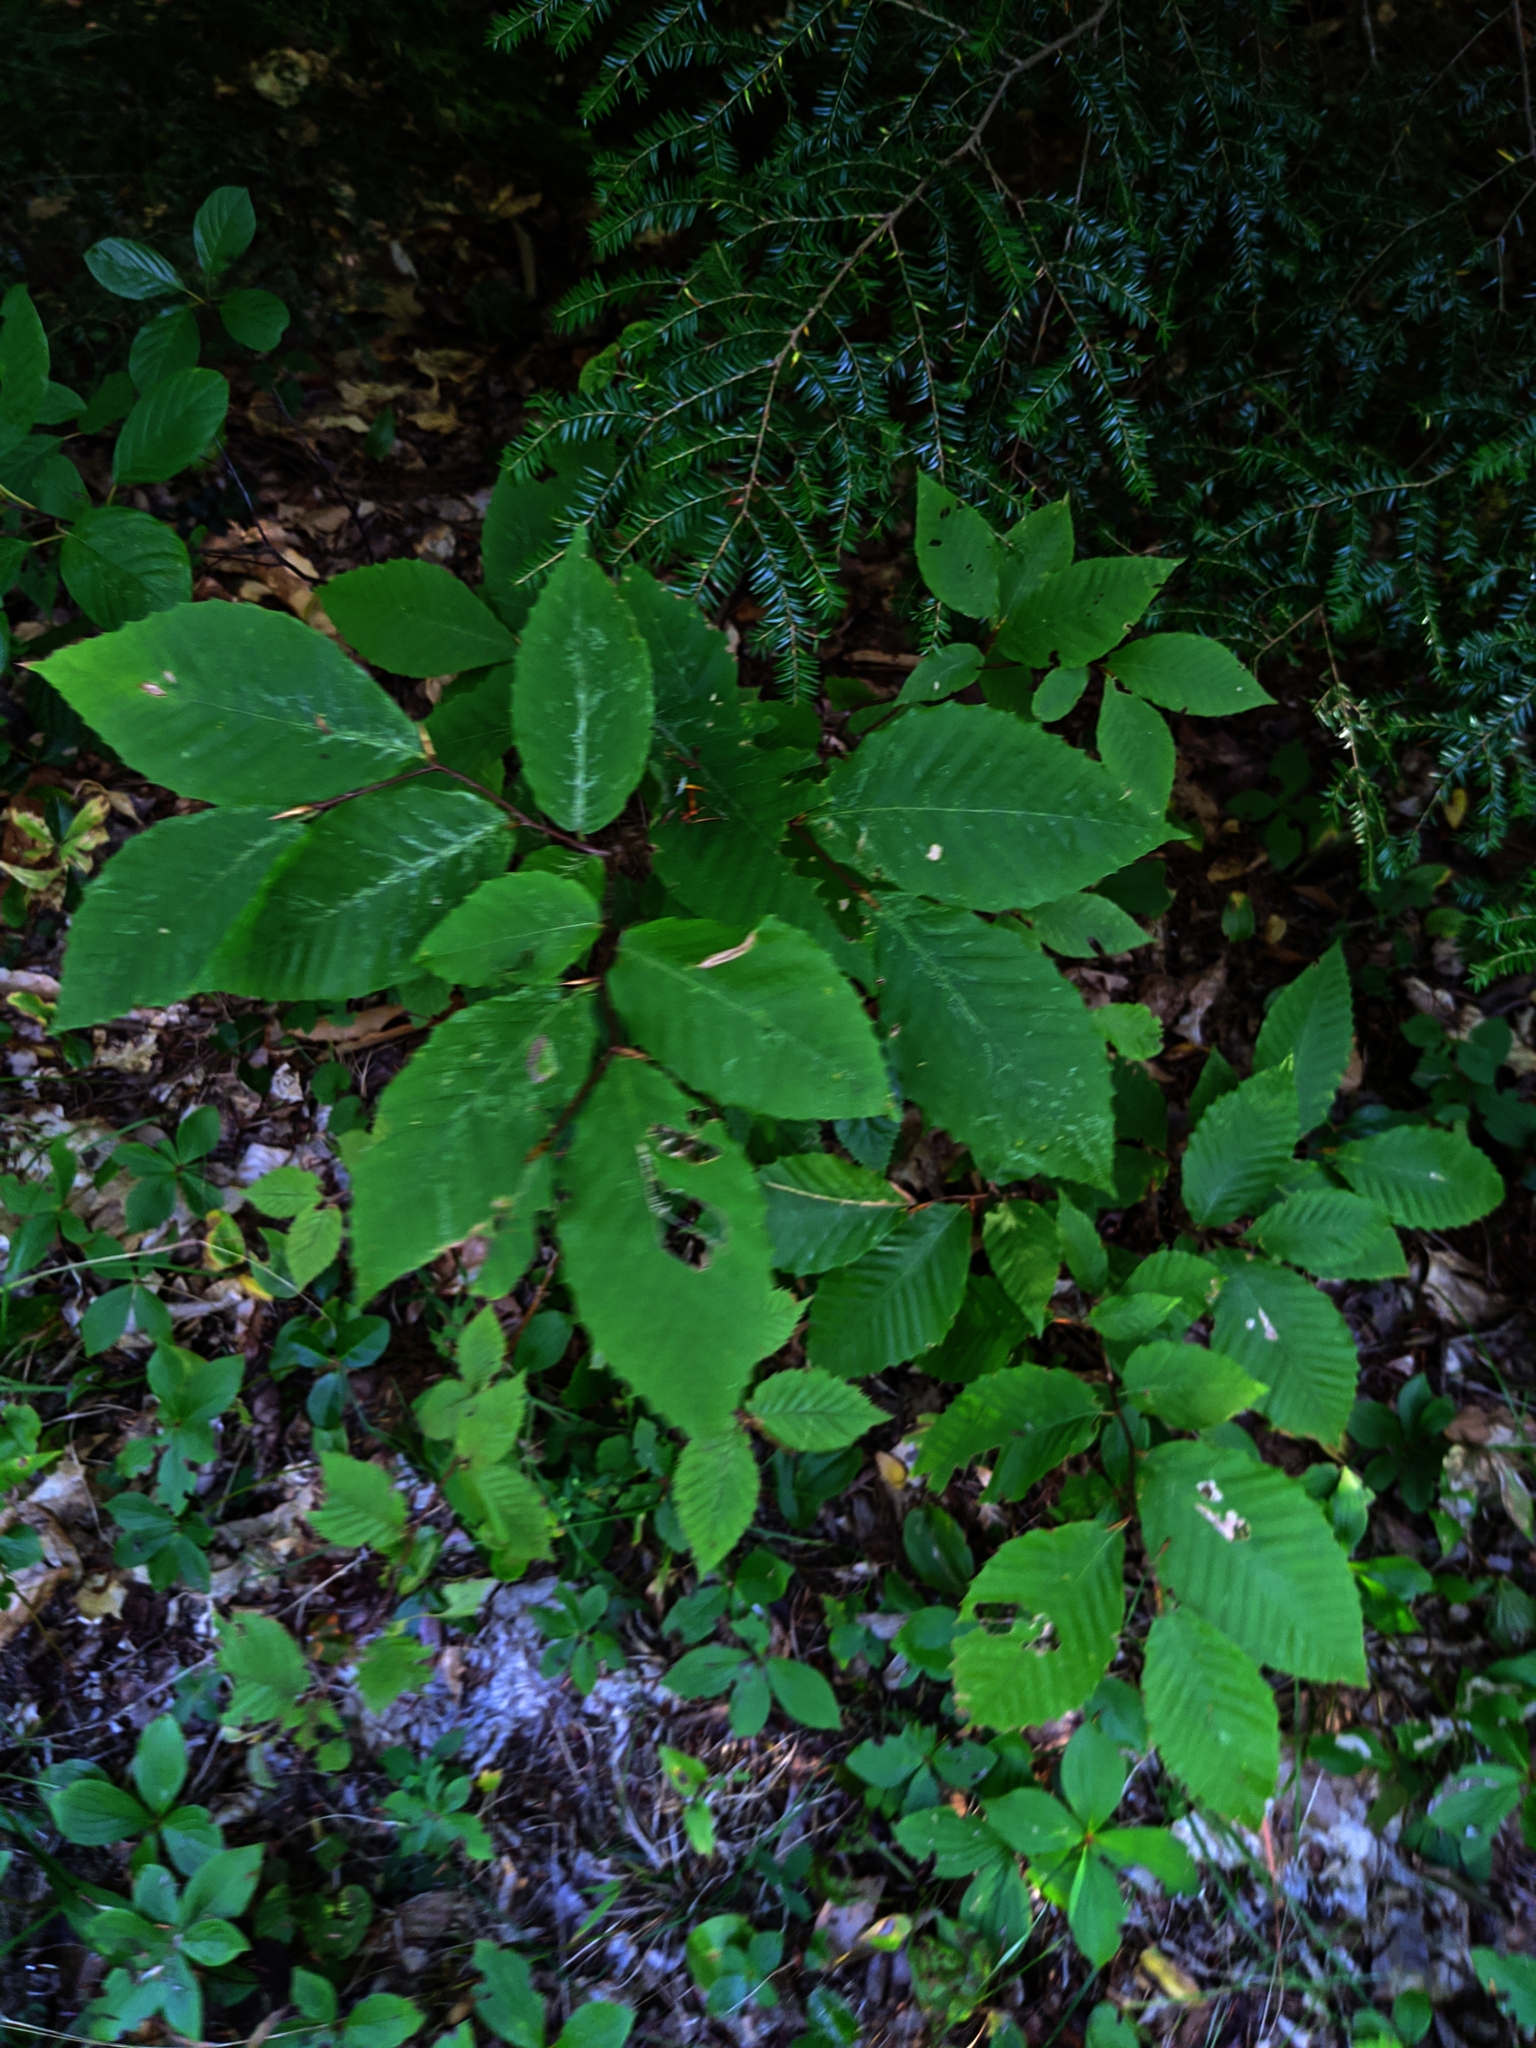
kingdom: Plantae
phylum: Tracheophyta
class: Pinopsida
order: Pinales
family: Pinaceae
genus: Tsuga
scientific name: Tsuga canadensis
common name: Eastern hemlock
